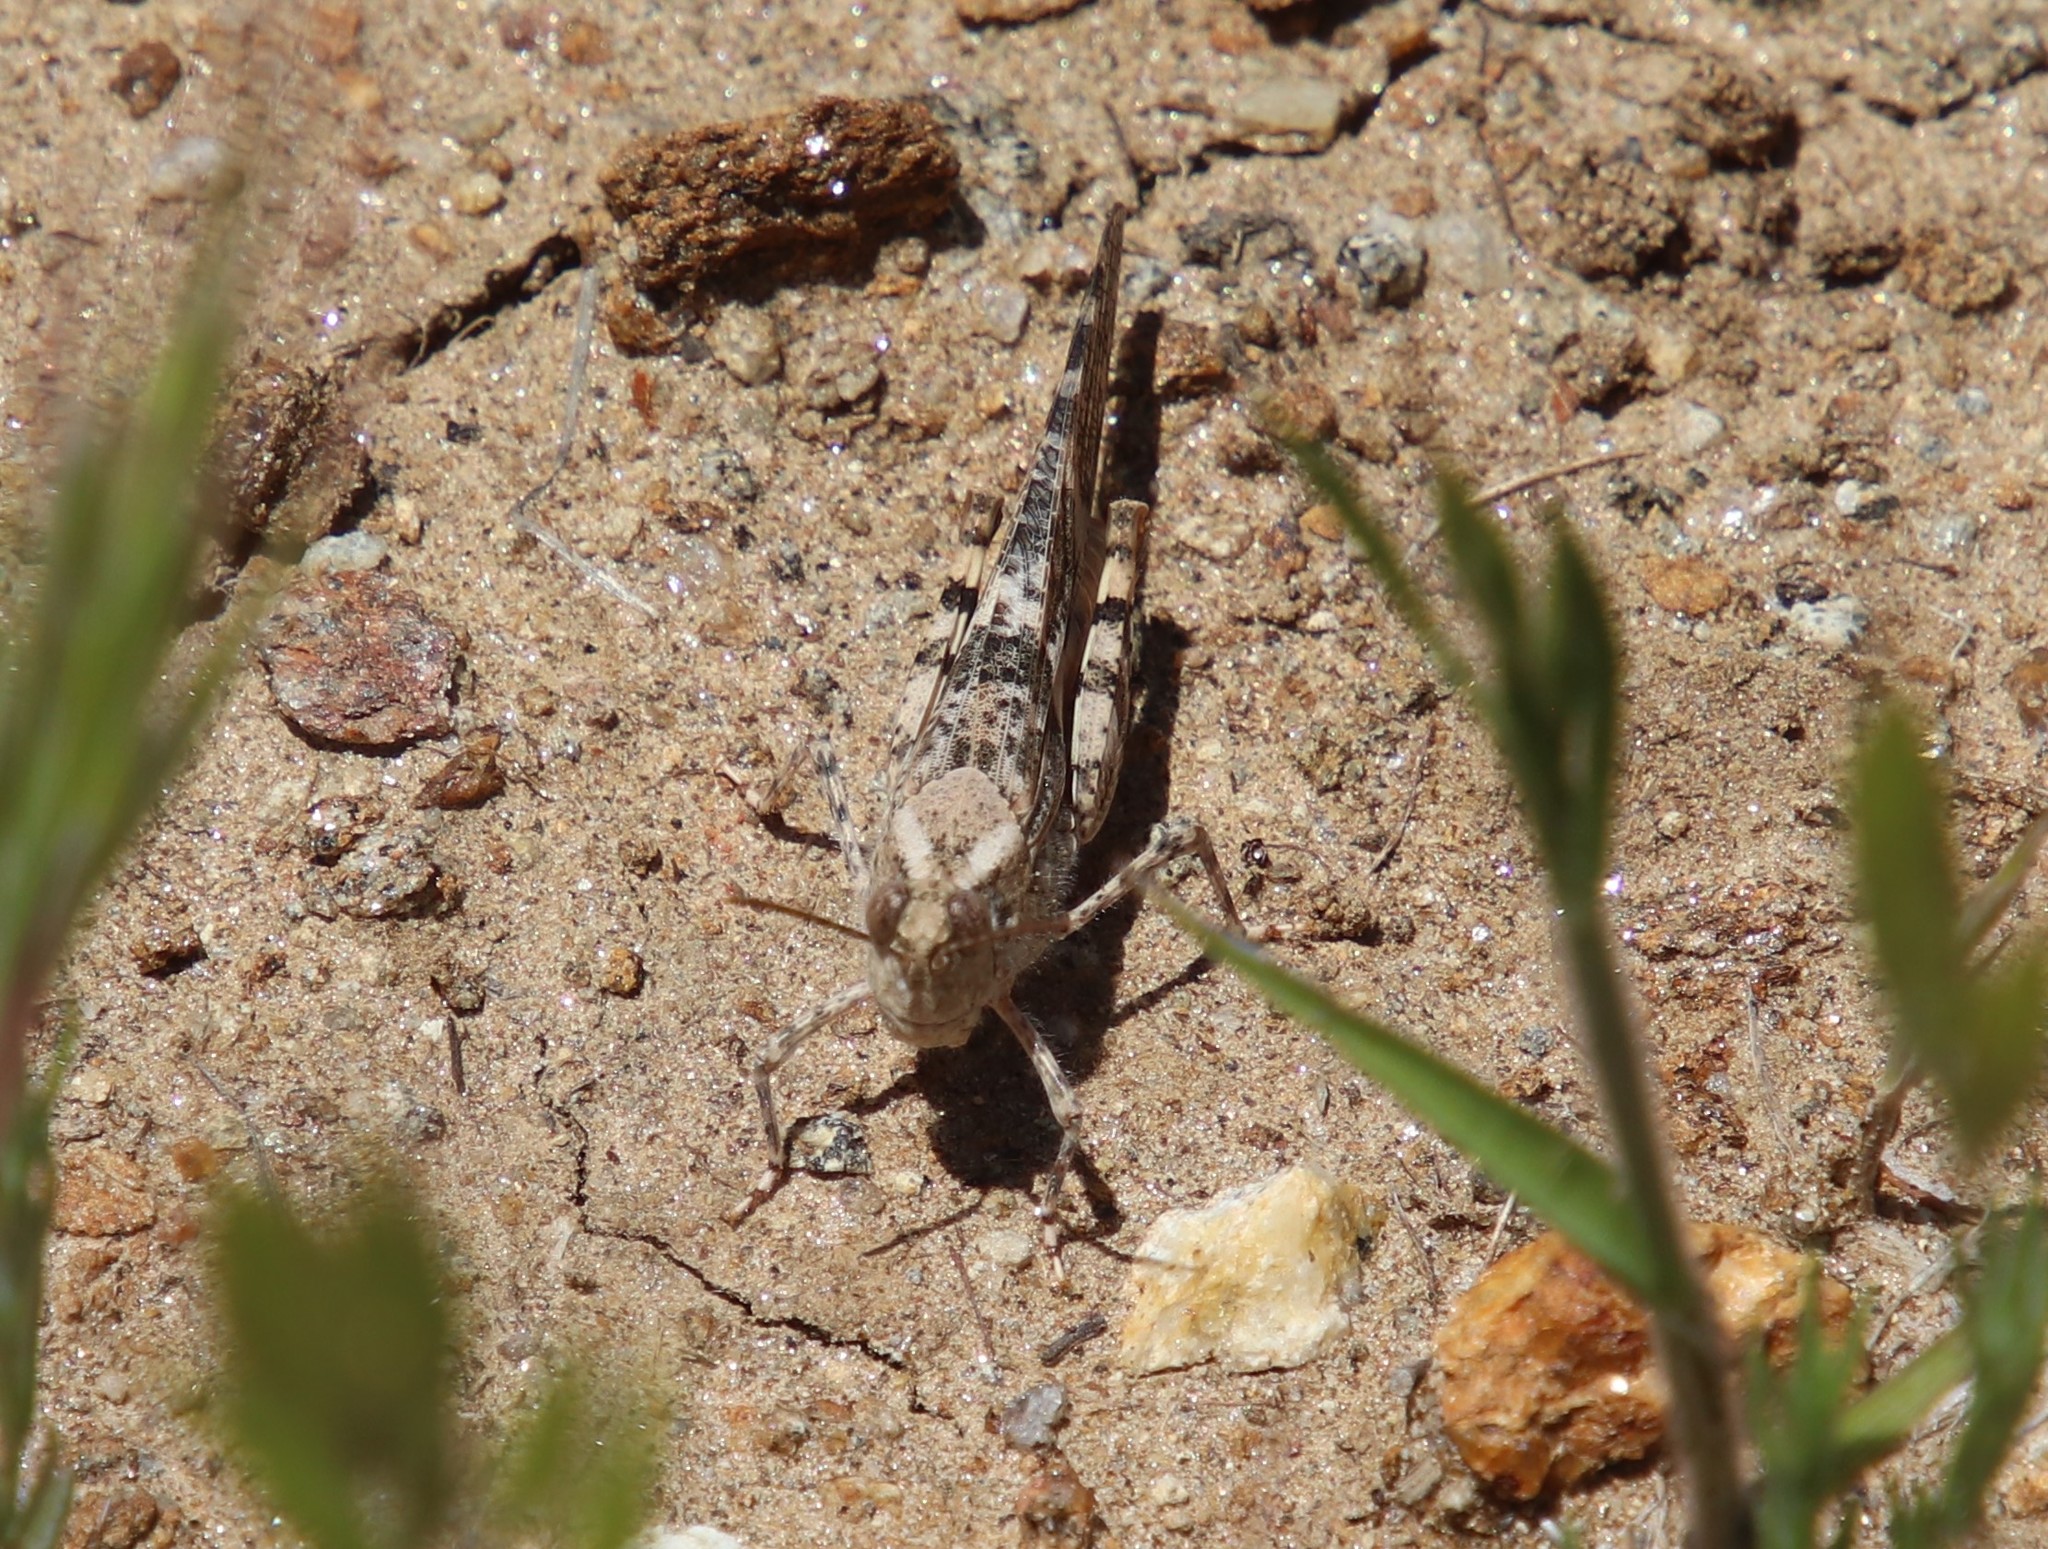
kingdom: Animalia
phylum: Arthropoda
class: Insecta
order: Orthoptera
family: Acrididae
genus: Trimerotropis
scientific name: Trimerotropis pallidipennis
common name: Pallid-winged grasshopper
